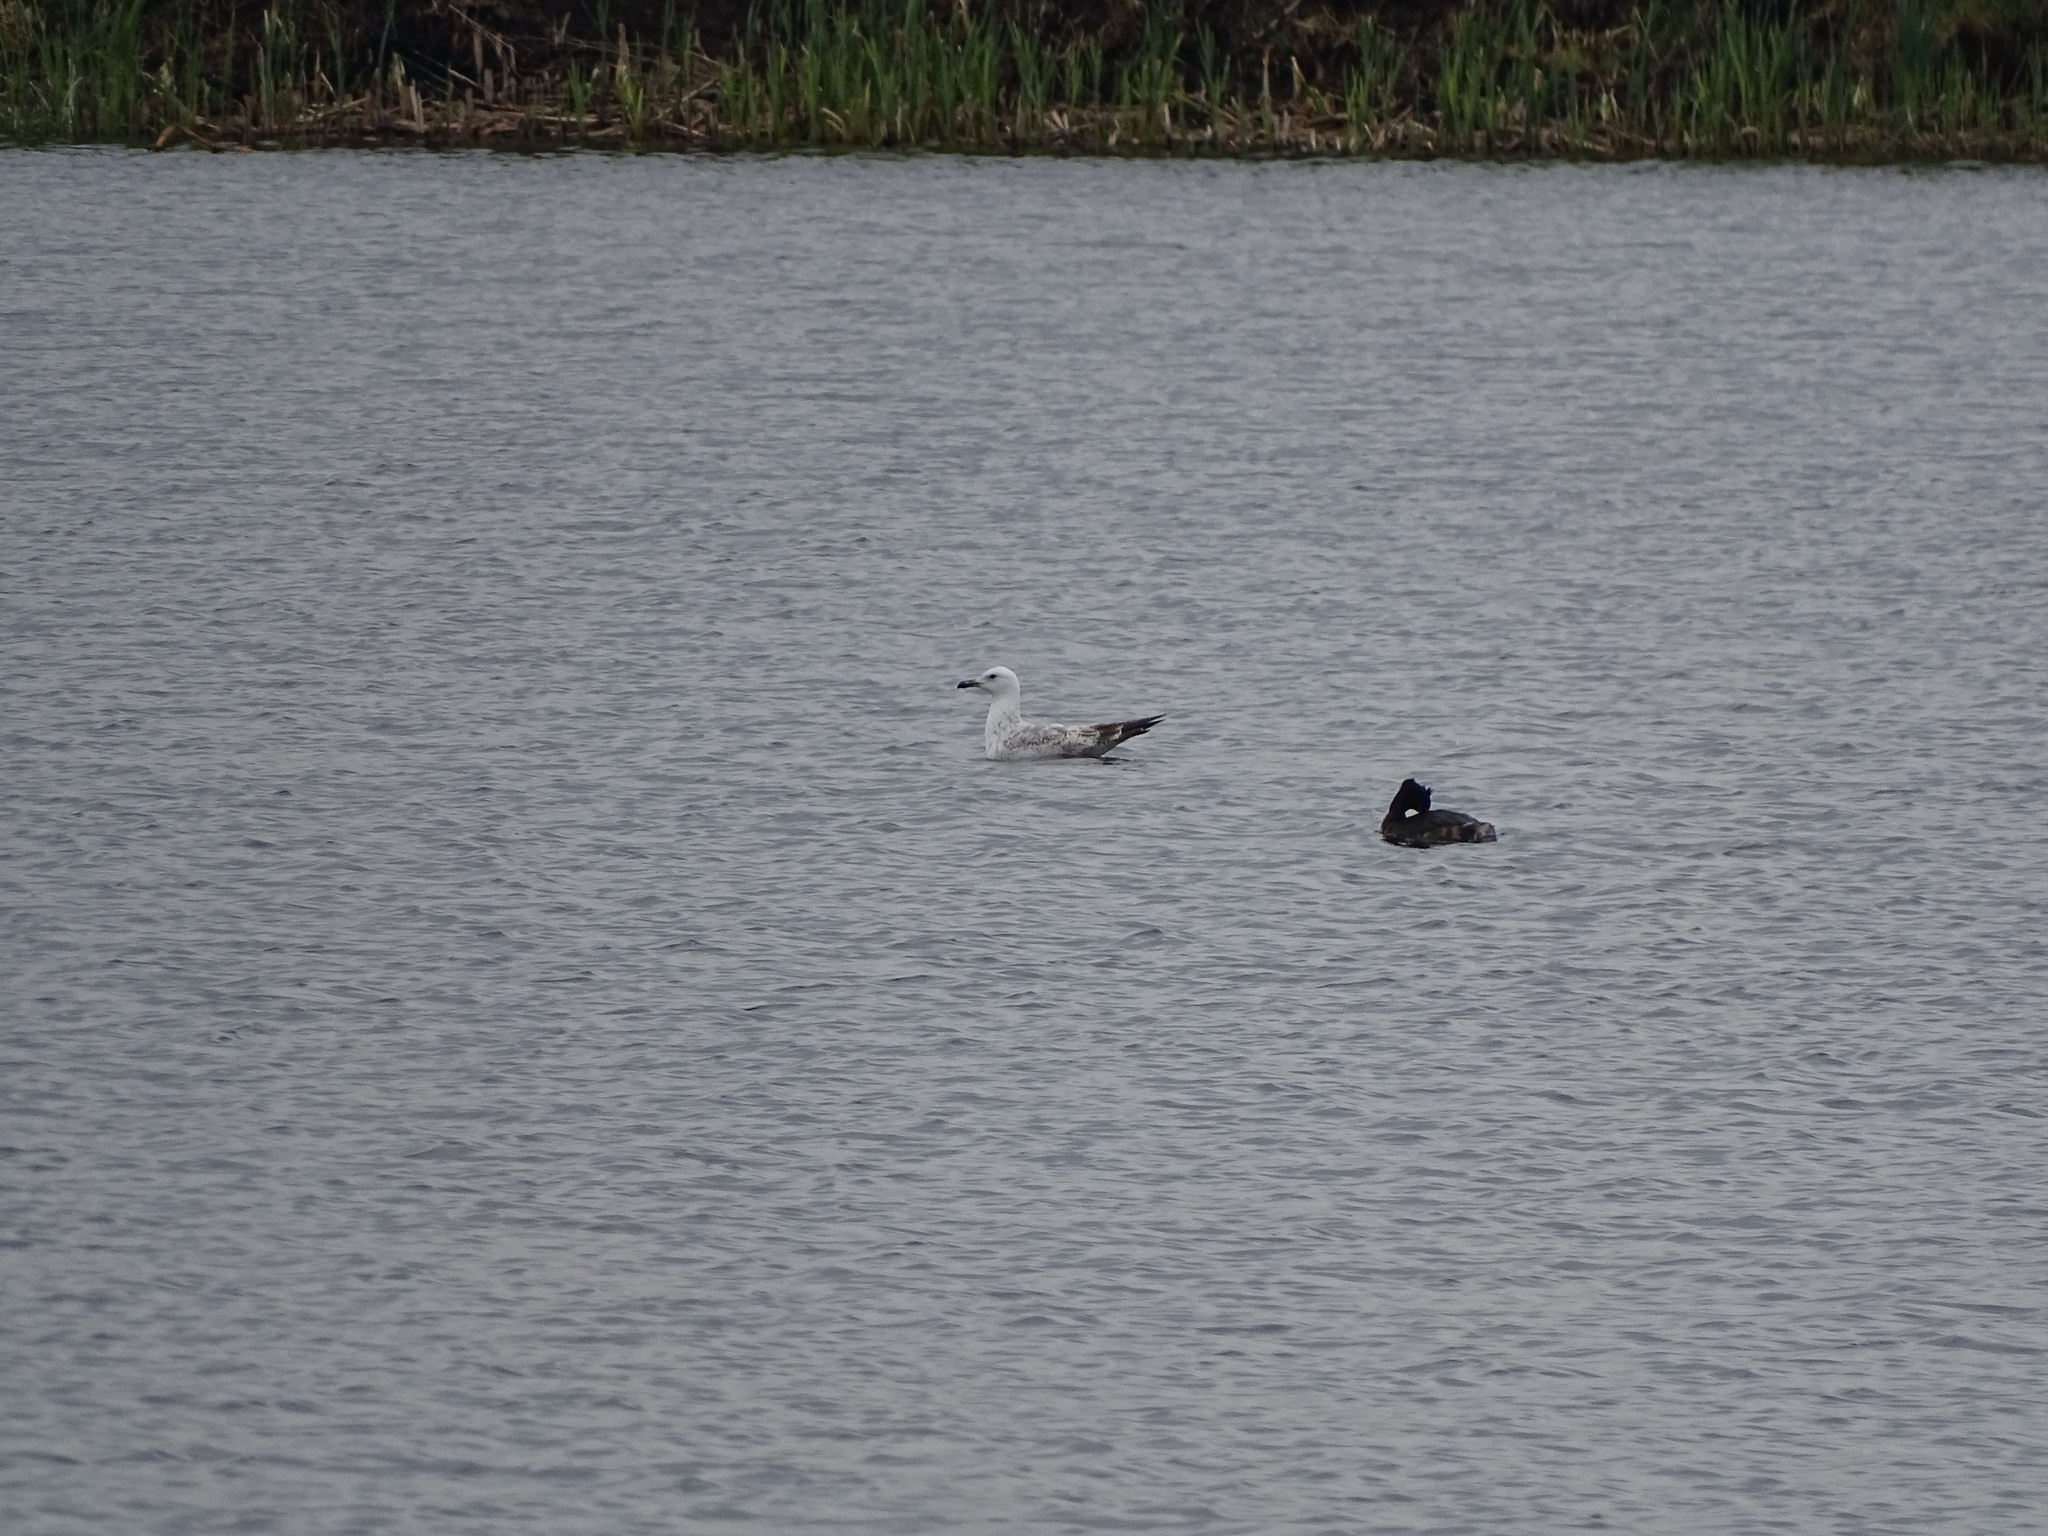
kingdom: Animalia
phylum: Chordata
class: Aves
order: Charadriiformes
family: Laridae
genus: Larus
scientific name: Larus cachinnans
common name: Caspian gull
